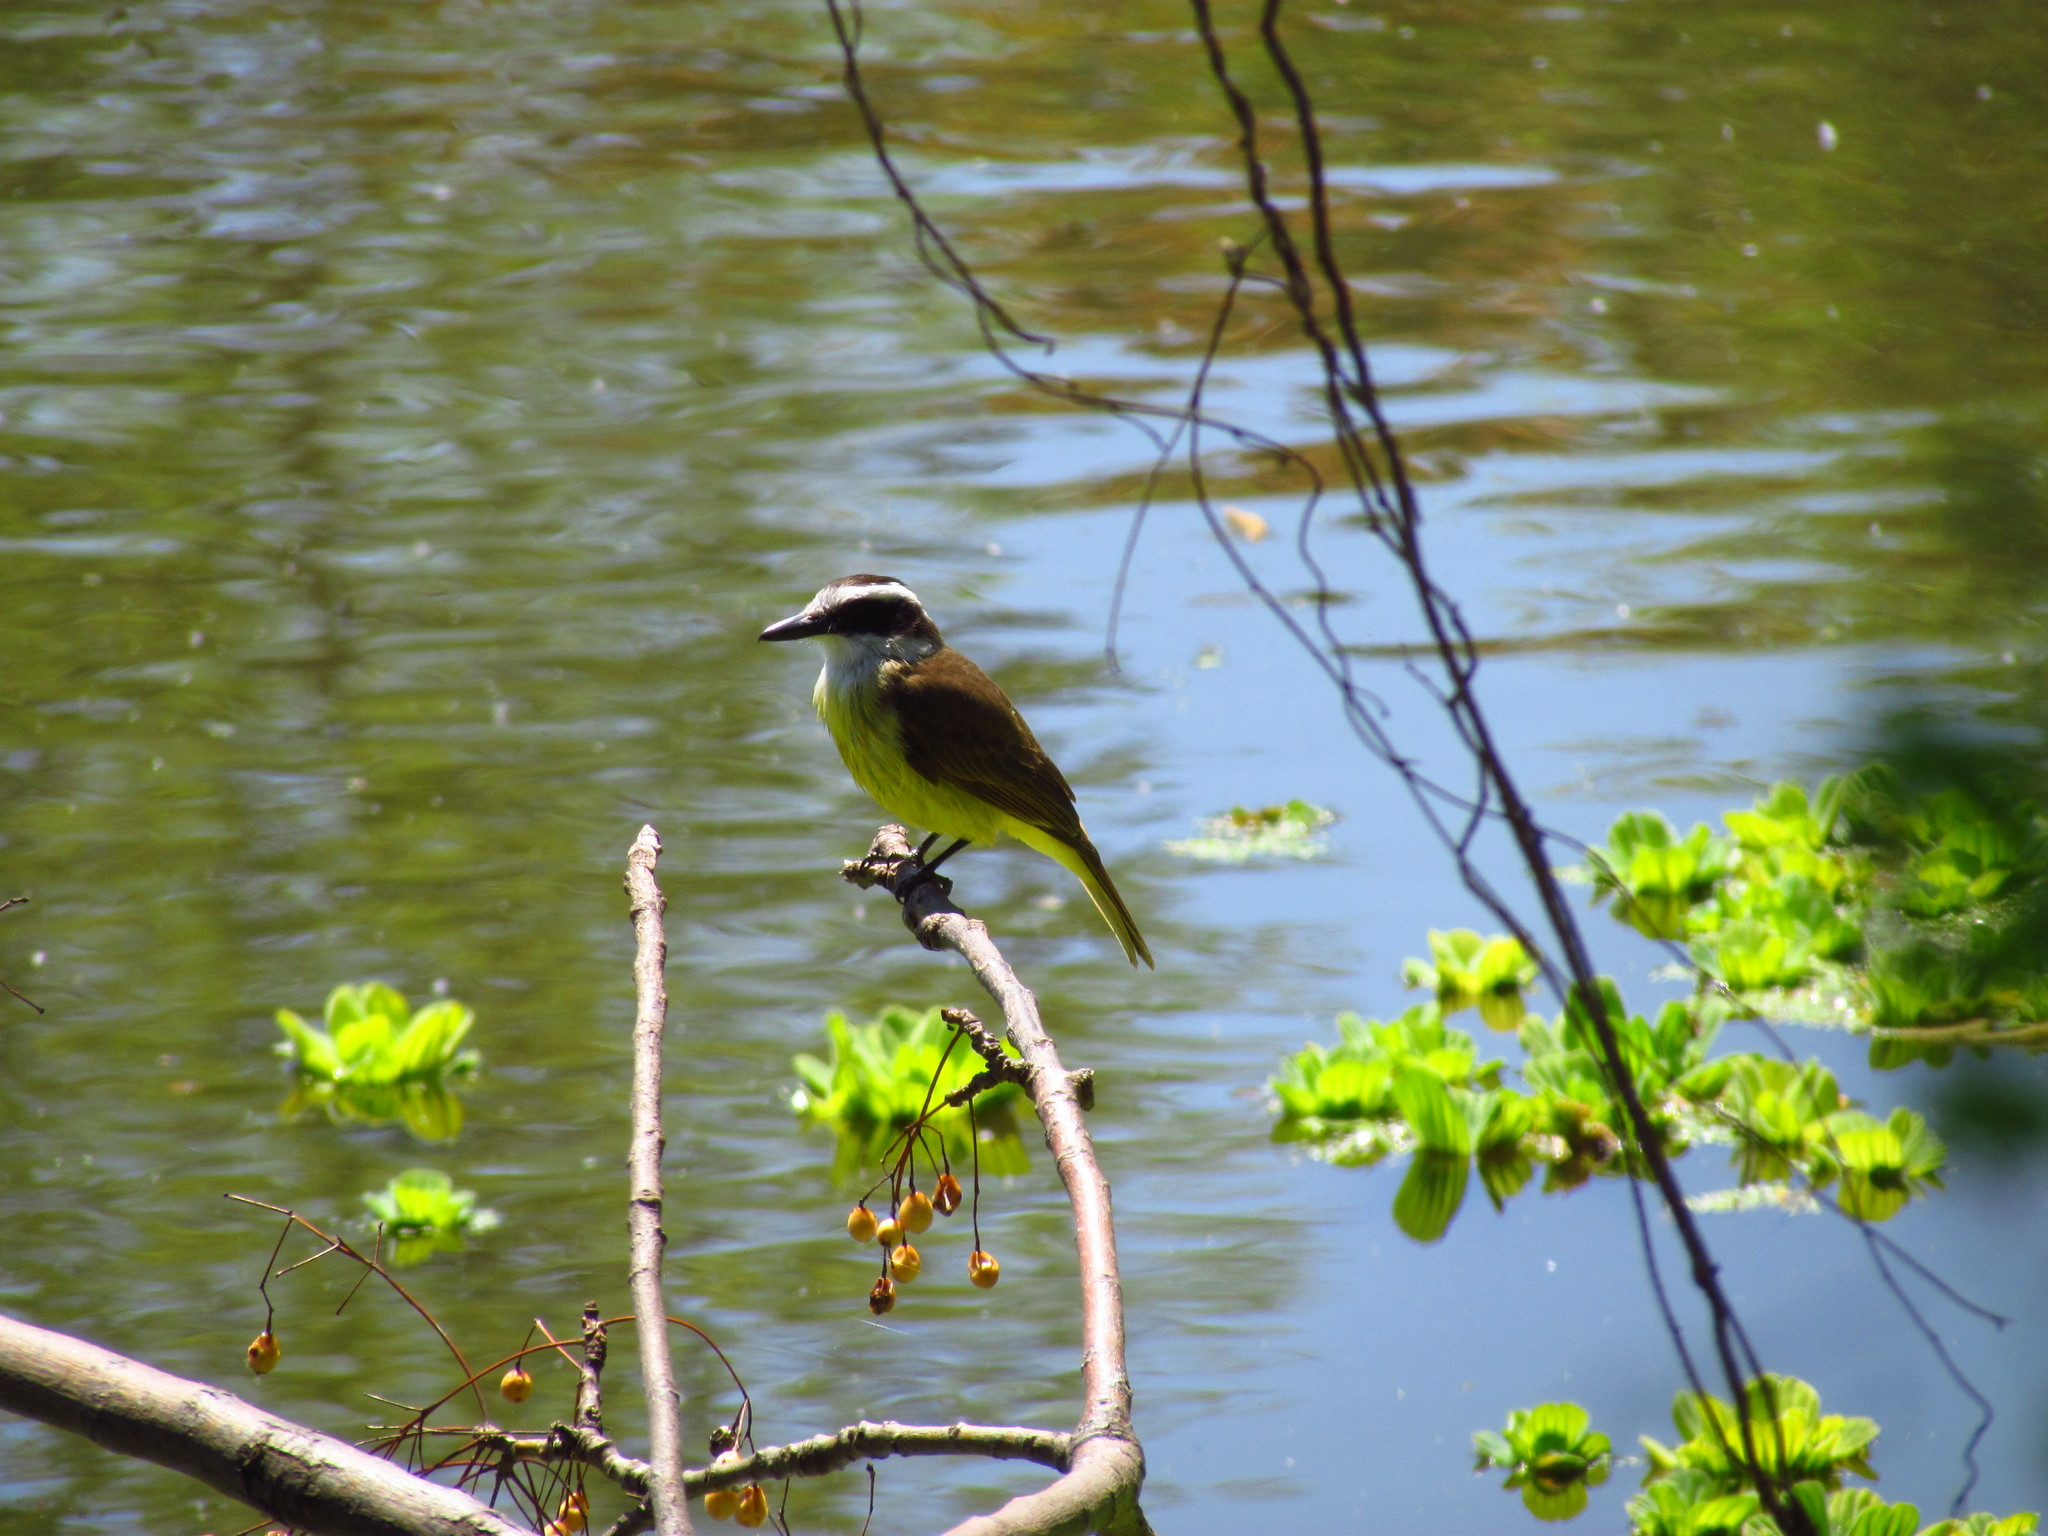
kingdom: Animalia
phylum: Chordata
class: Aves
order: Passeriformes
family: Tyrannidae
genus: Pitangus
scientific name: Pitangus sulphuratus
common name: Great kiskadee
